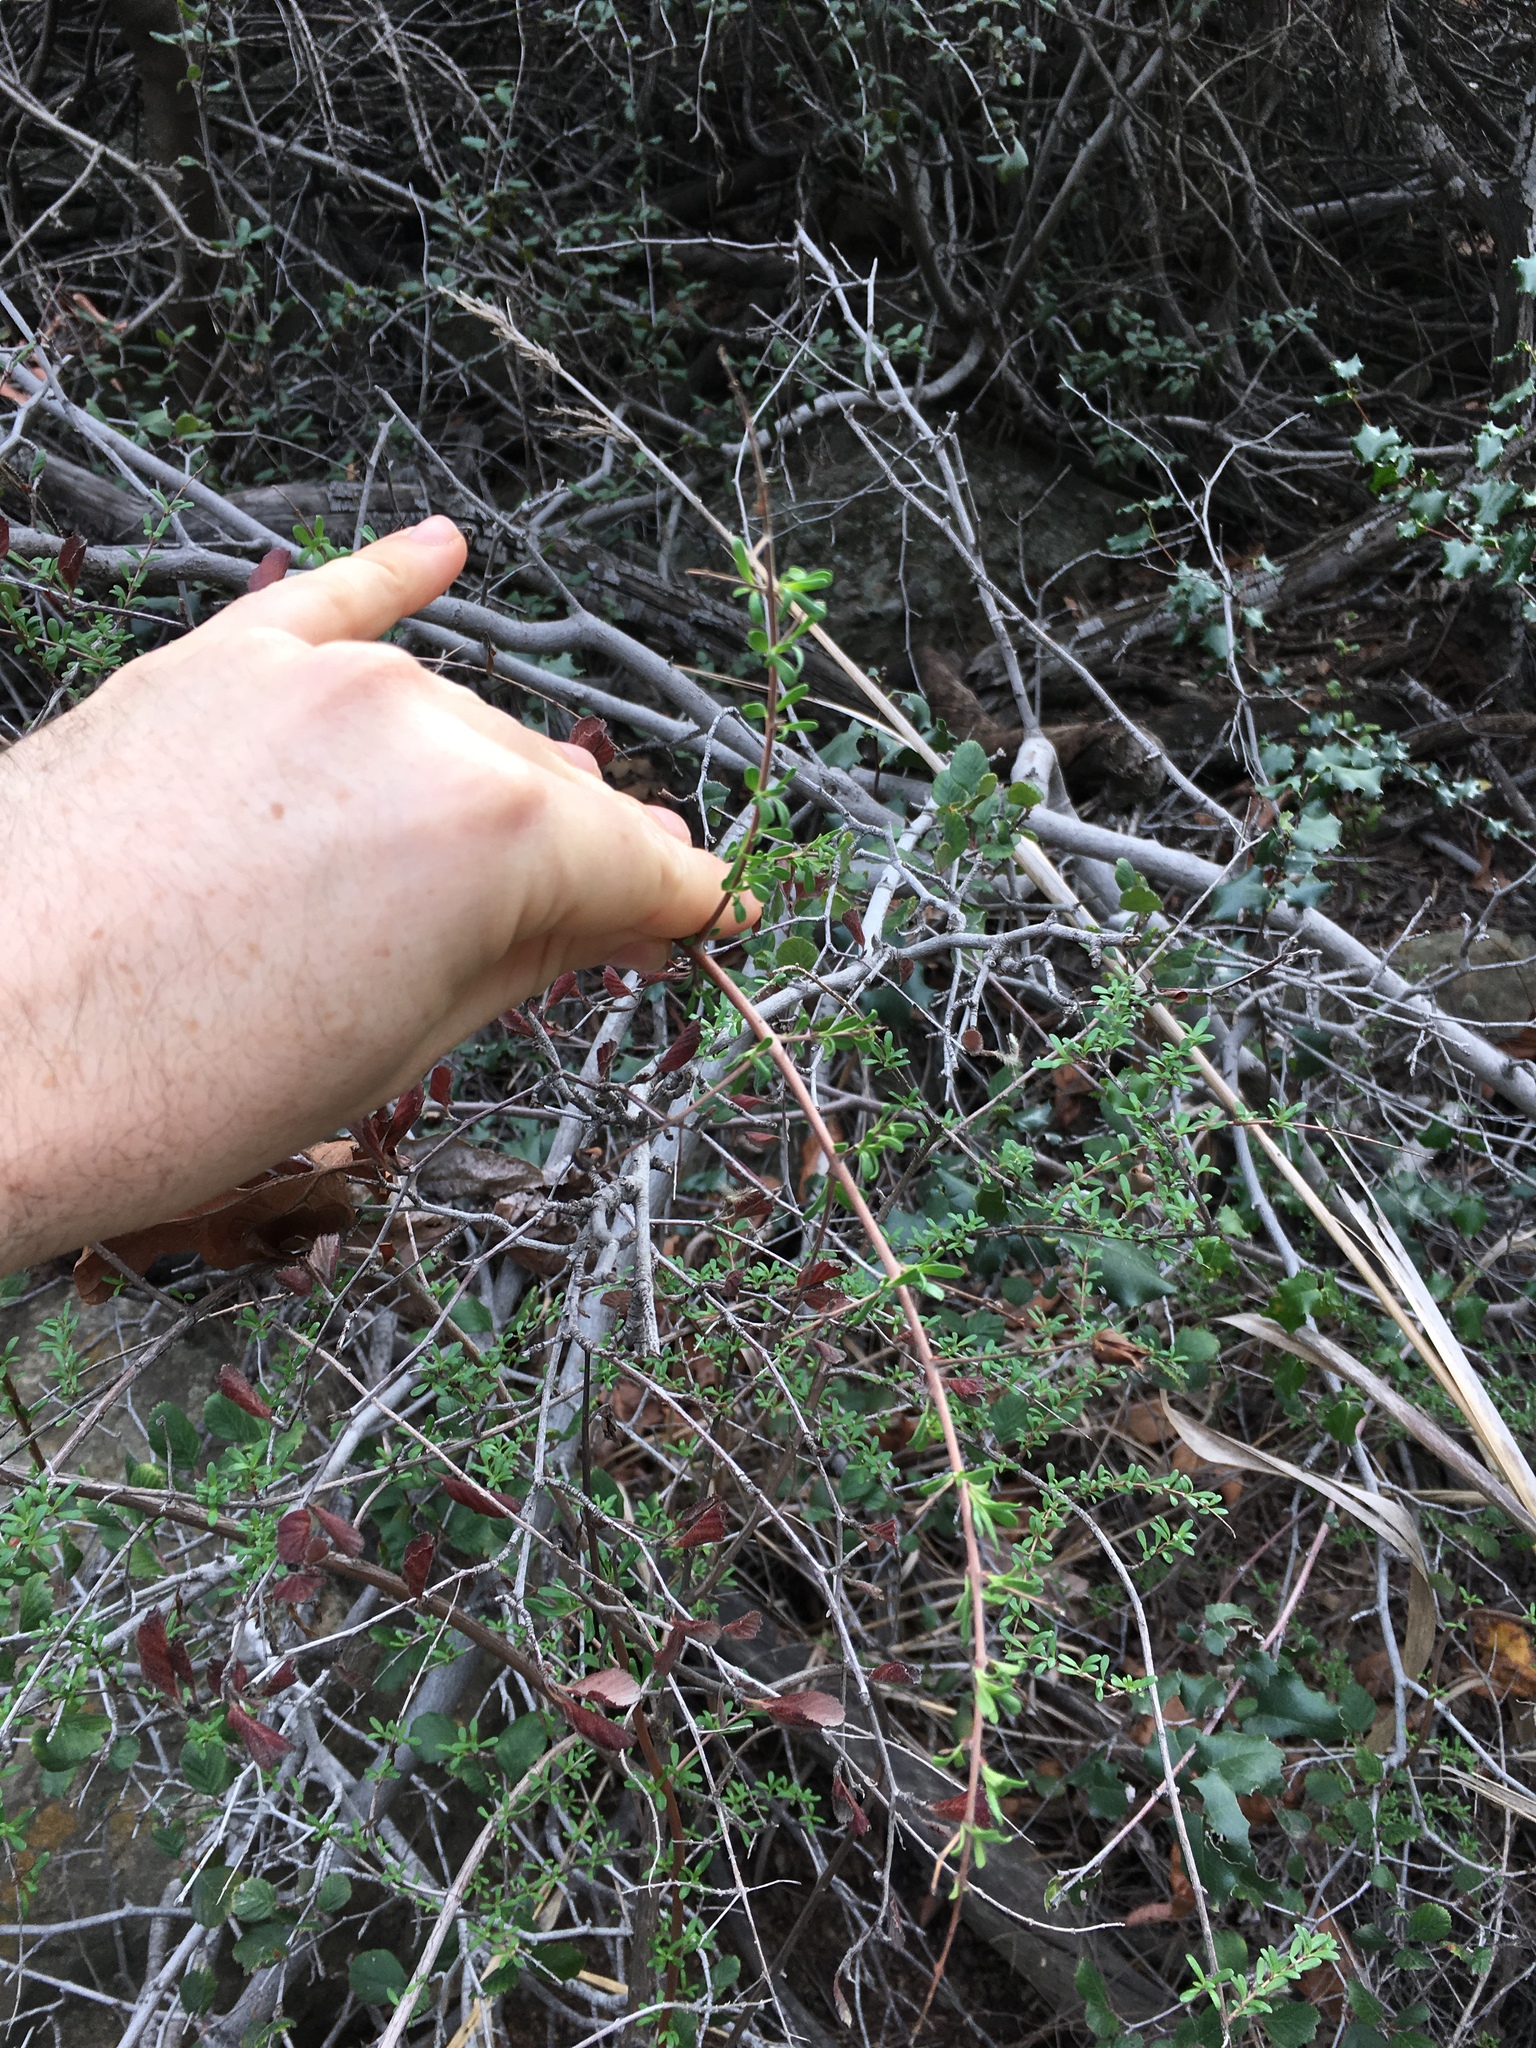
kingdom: Plantae
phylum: Tracheophyta
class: Magnoliopsida
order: Lamiales
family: Plantaginaceae
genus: Keckiella
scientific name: Keckiella antirrhinoides
